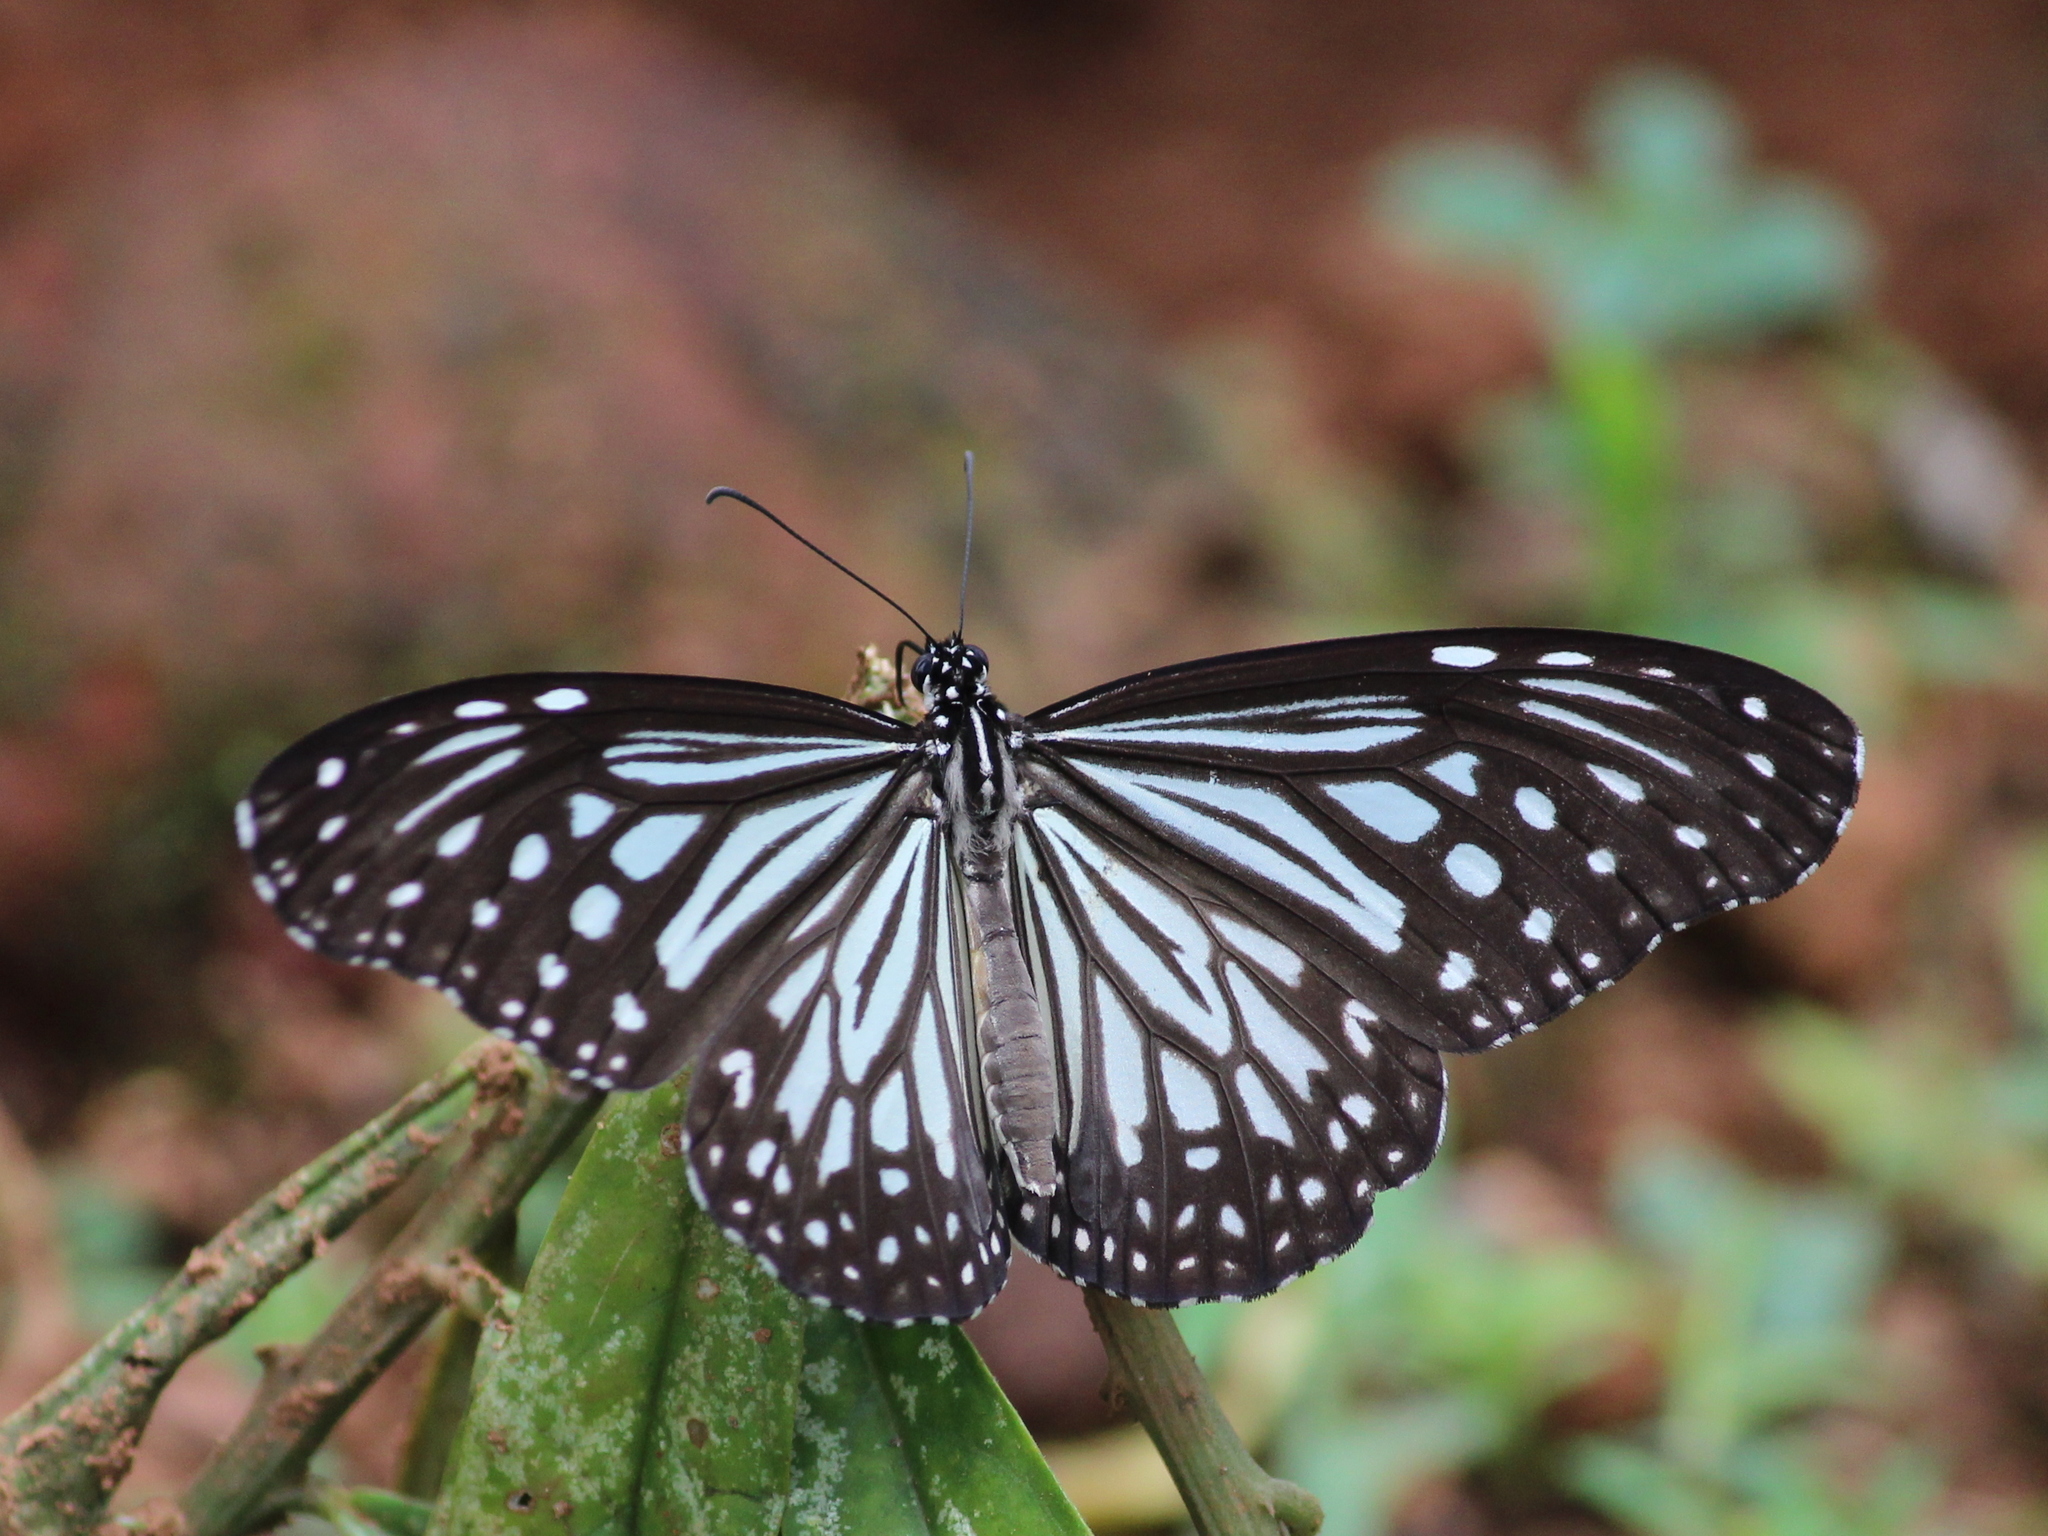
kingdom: Animalia
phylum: Arthropoda
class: Insecta
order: Lepidoptera
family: Nymphalidae
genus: Parantica
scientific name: Parantica aglea
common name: Glassy tiger
